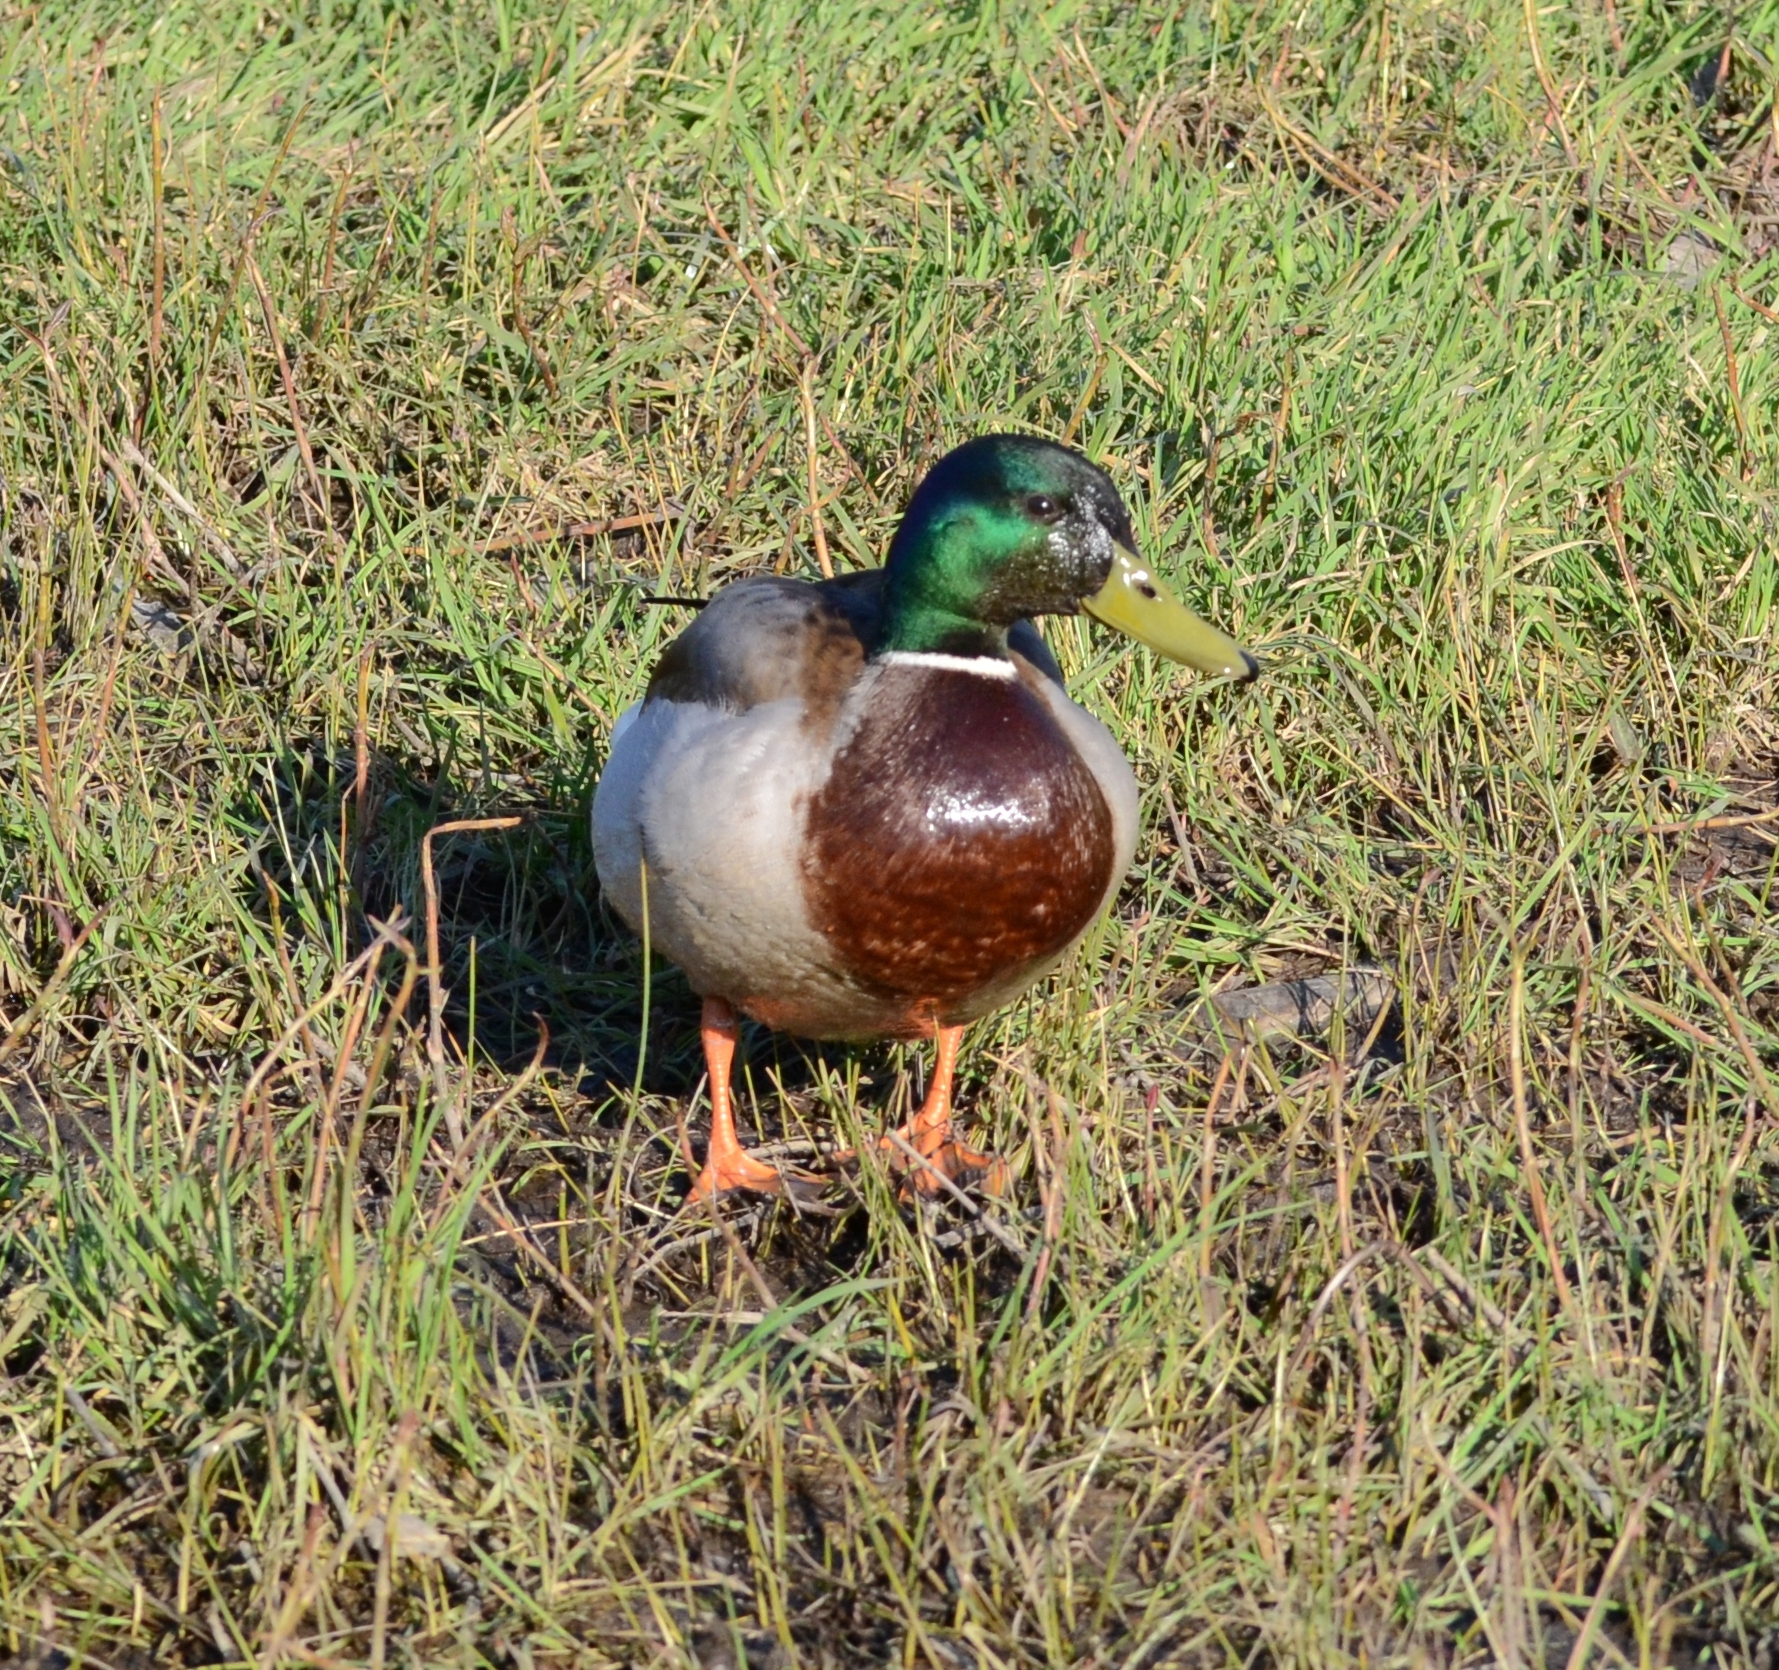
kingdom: Animalia
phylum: Chordata
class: Aves
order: Anseriformes
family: Anatidae
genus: Anas
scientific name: Anas platyrhynchos
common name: Mallard
